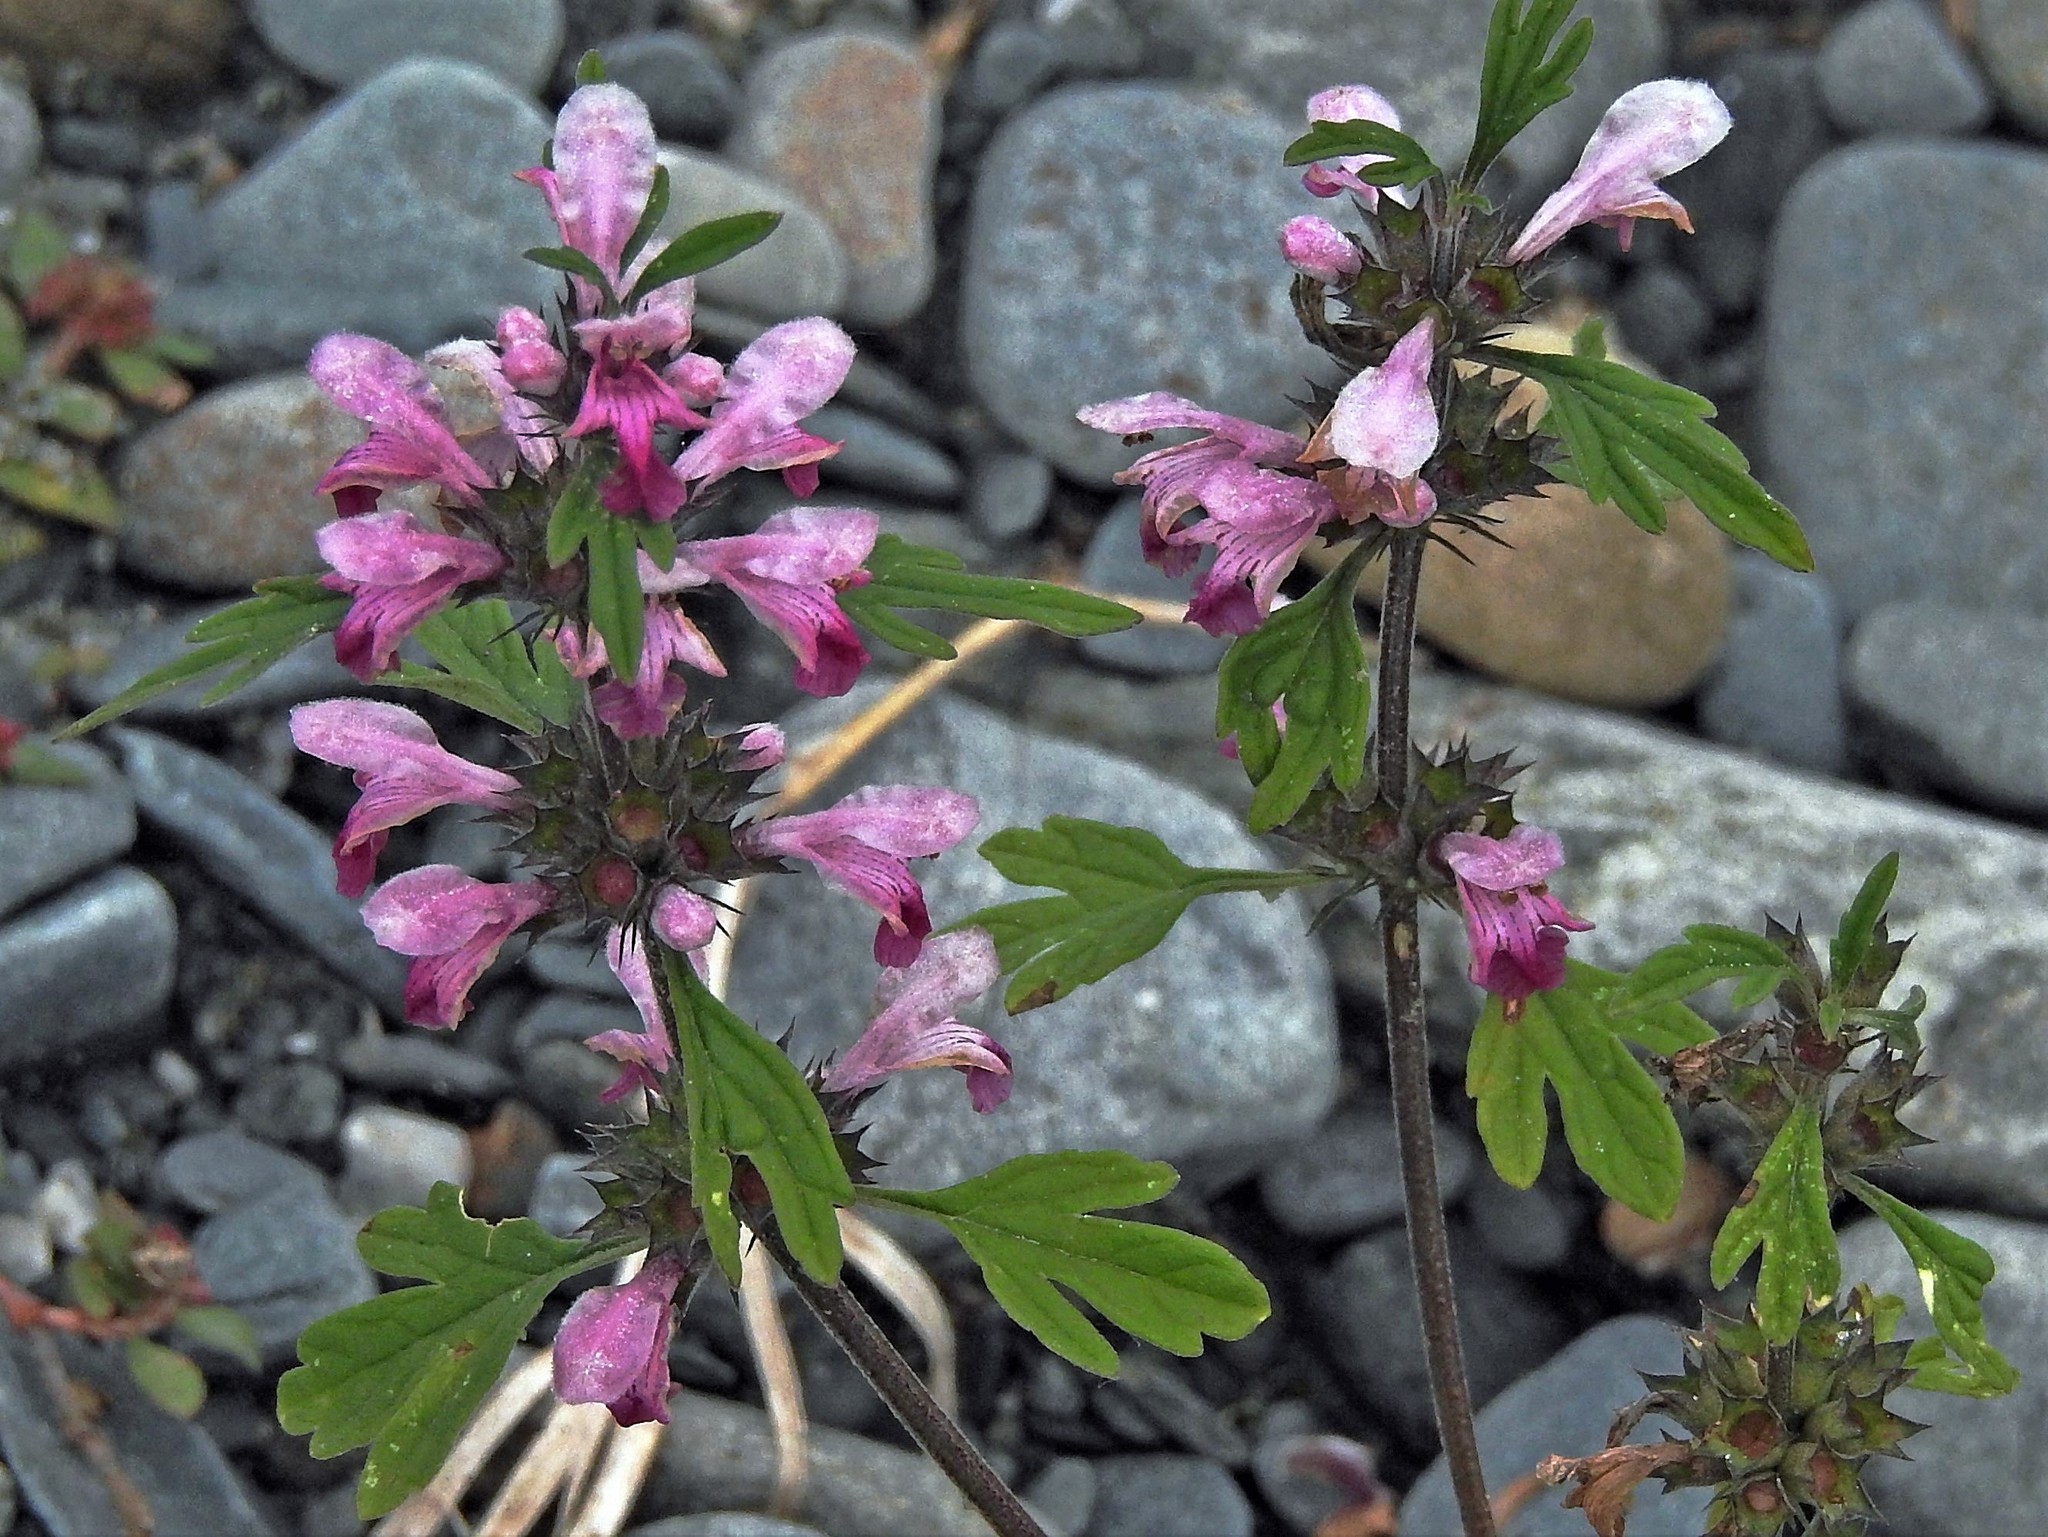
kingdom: Plantae
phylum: Tracheophyta
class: Magnoliopsida
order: Lamiales
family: Lamiaceae
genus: Leonurus
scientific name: Leonurus japonicus
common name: Honeyweed
